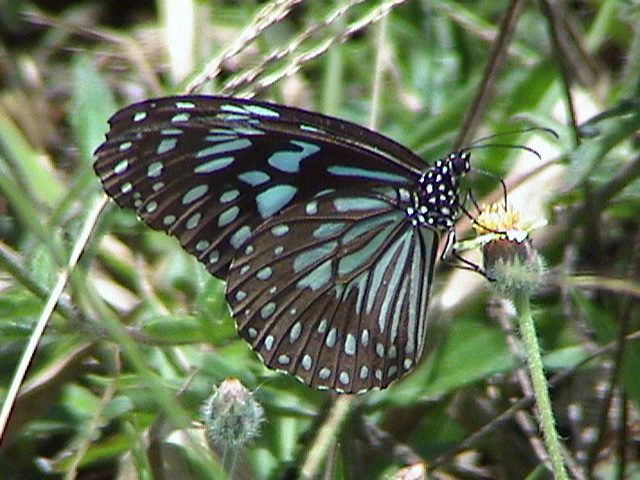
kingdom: Animalia
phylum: Arthropoda
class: Insecta
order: Lepidoptera
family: Nymphalidae
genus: Tirumala
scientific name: Tirumala septentrionis
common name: Dark blue tiger butterfly
